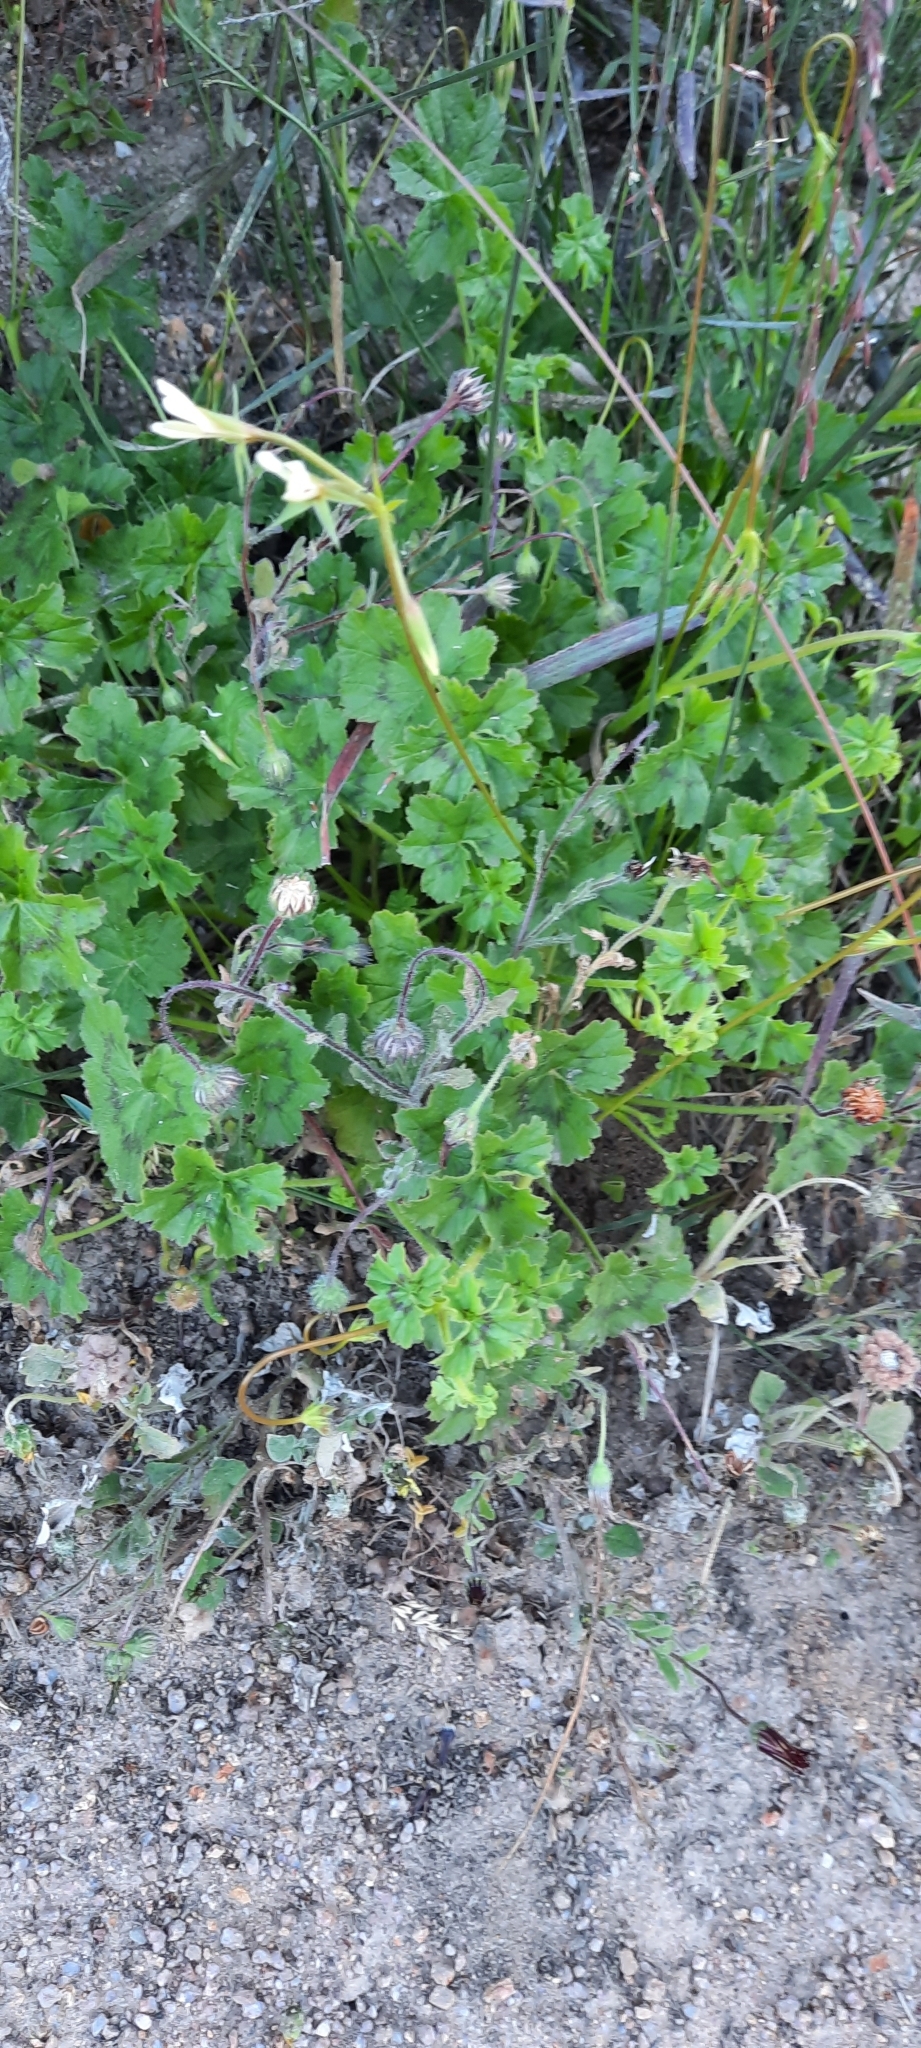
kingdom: Plantae
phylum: Tracheophyta
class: Magnoliopsida
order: Geraniales
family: Geraniaceae
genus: Pelargonium
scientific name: Pelargonium elongatum
